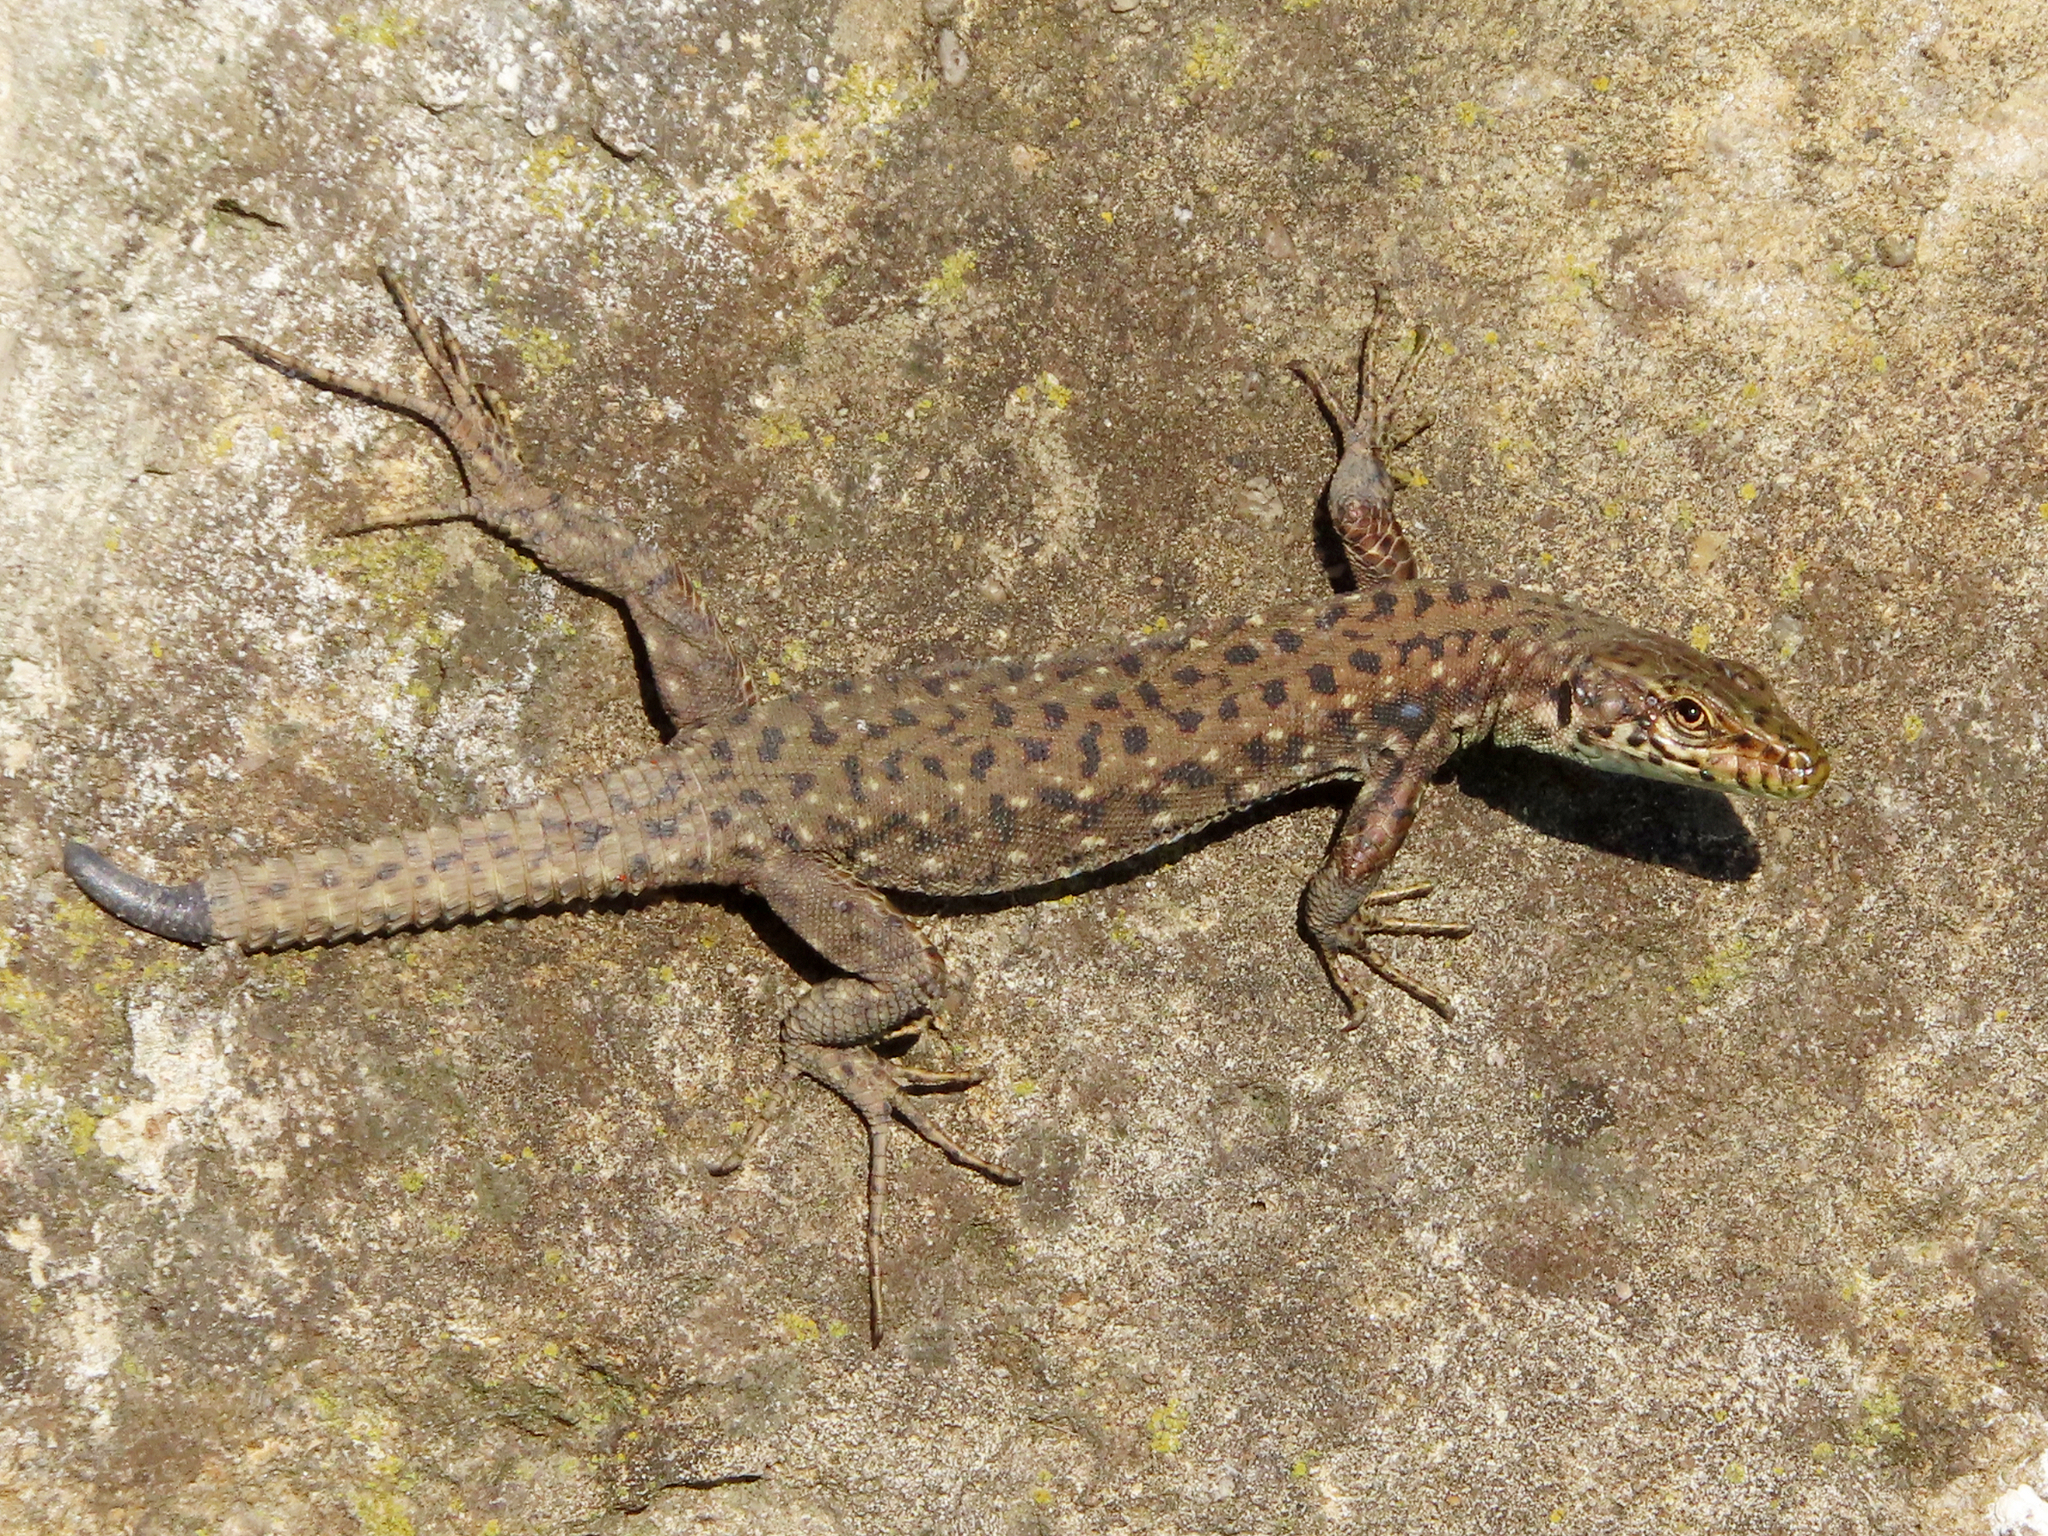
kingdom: Animalia
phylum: Chordata
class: Squamata
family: Lacertidae
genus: Darevskia
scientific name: Darevskia rudis
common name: Spiny-tailed lizard
